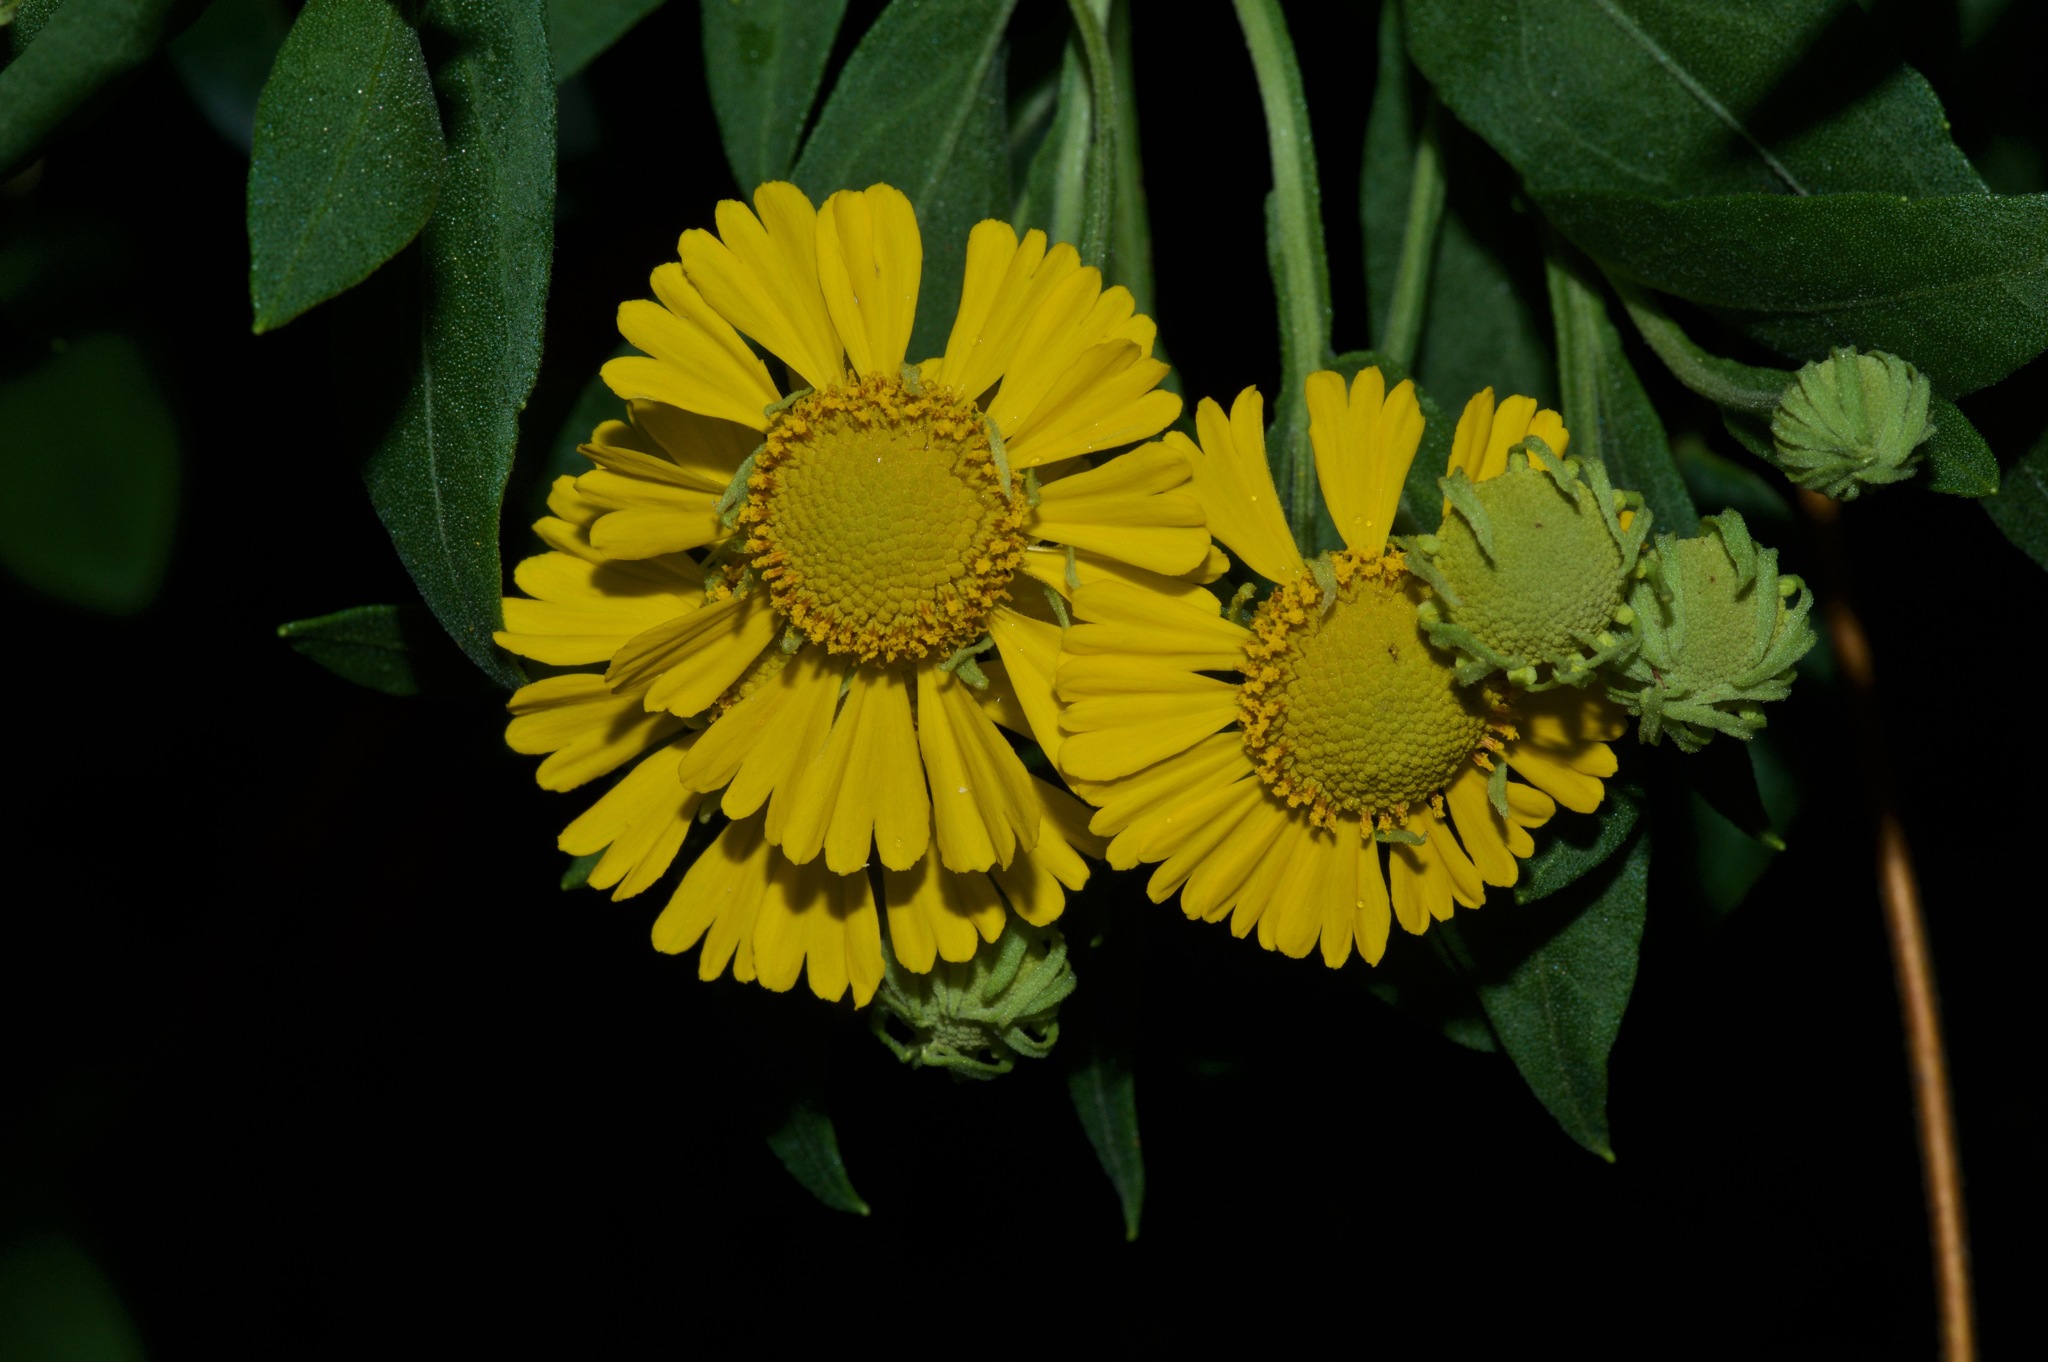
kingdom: Plantae
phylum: Tracheophyta
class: Magnoliopsida
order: Asterales
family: Asteraceae
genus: Helenium
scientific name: Helenium autumnale
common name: Sneezeweed
